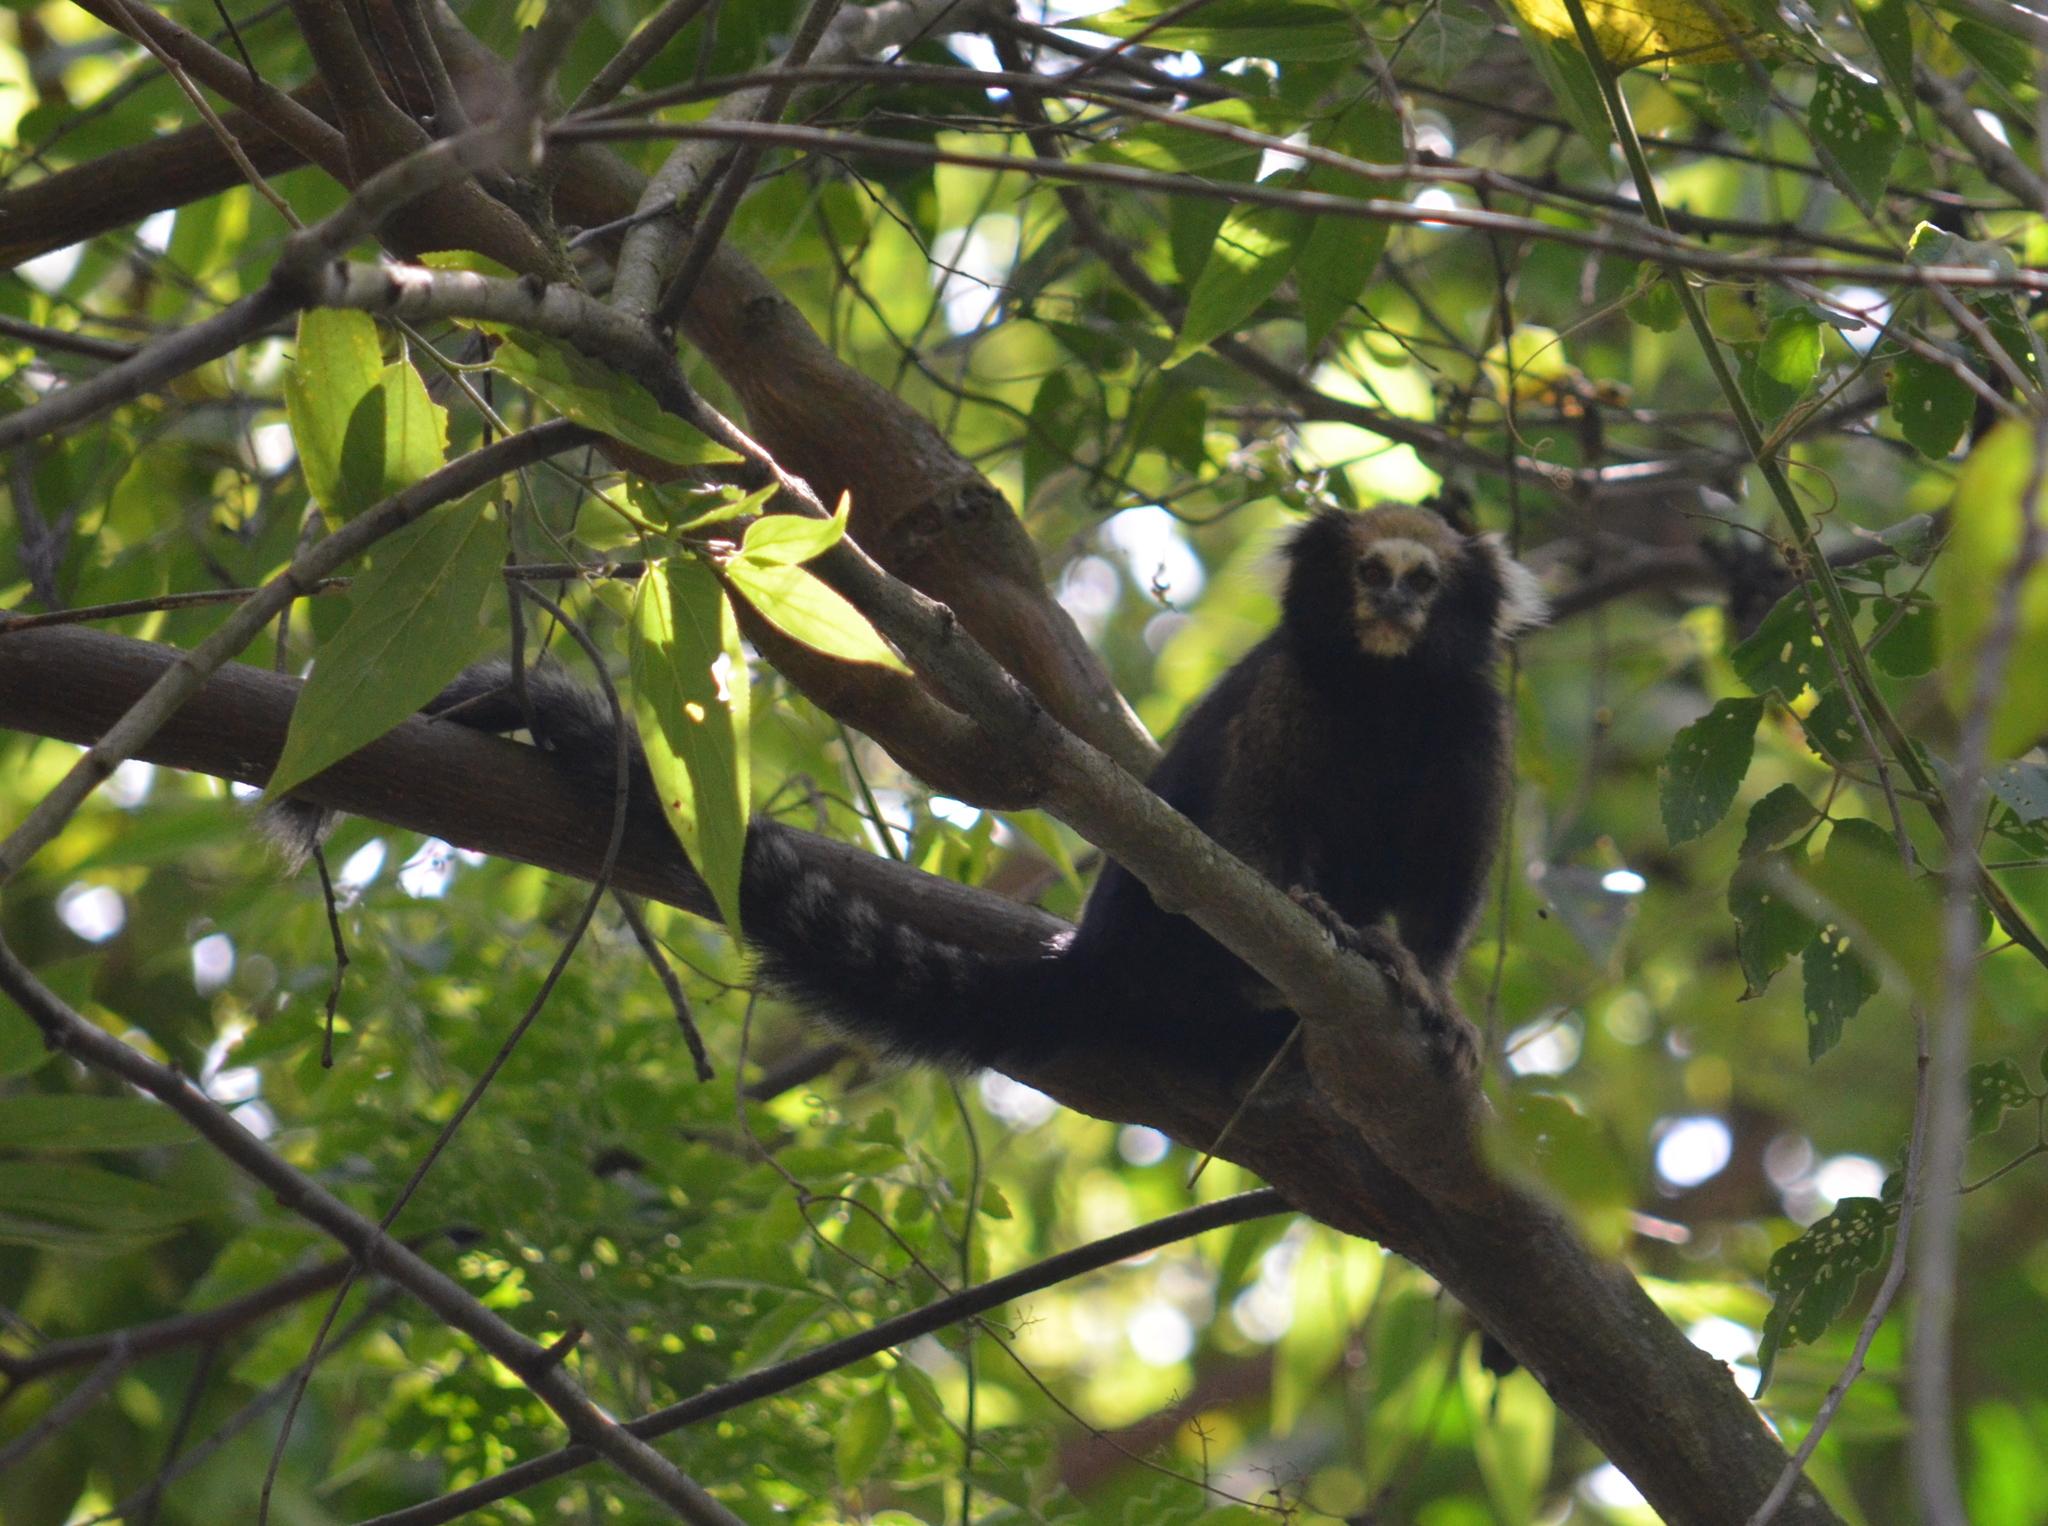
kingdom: Animalia
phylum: Chordata
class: Mammalia
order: Primates
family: Callitrichidae
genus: Callithrix
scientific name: Callithrix aurita
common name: Buffy-tufted marmoset
